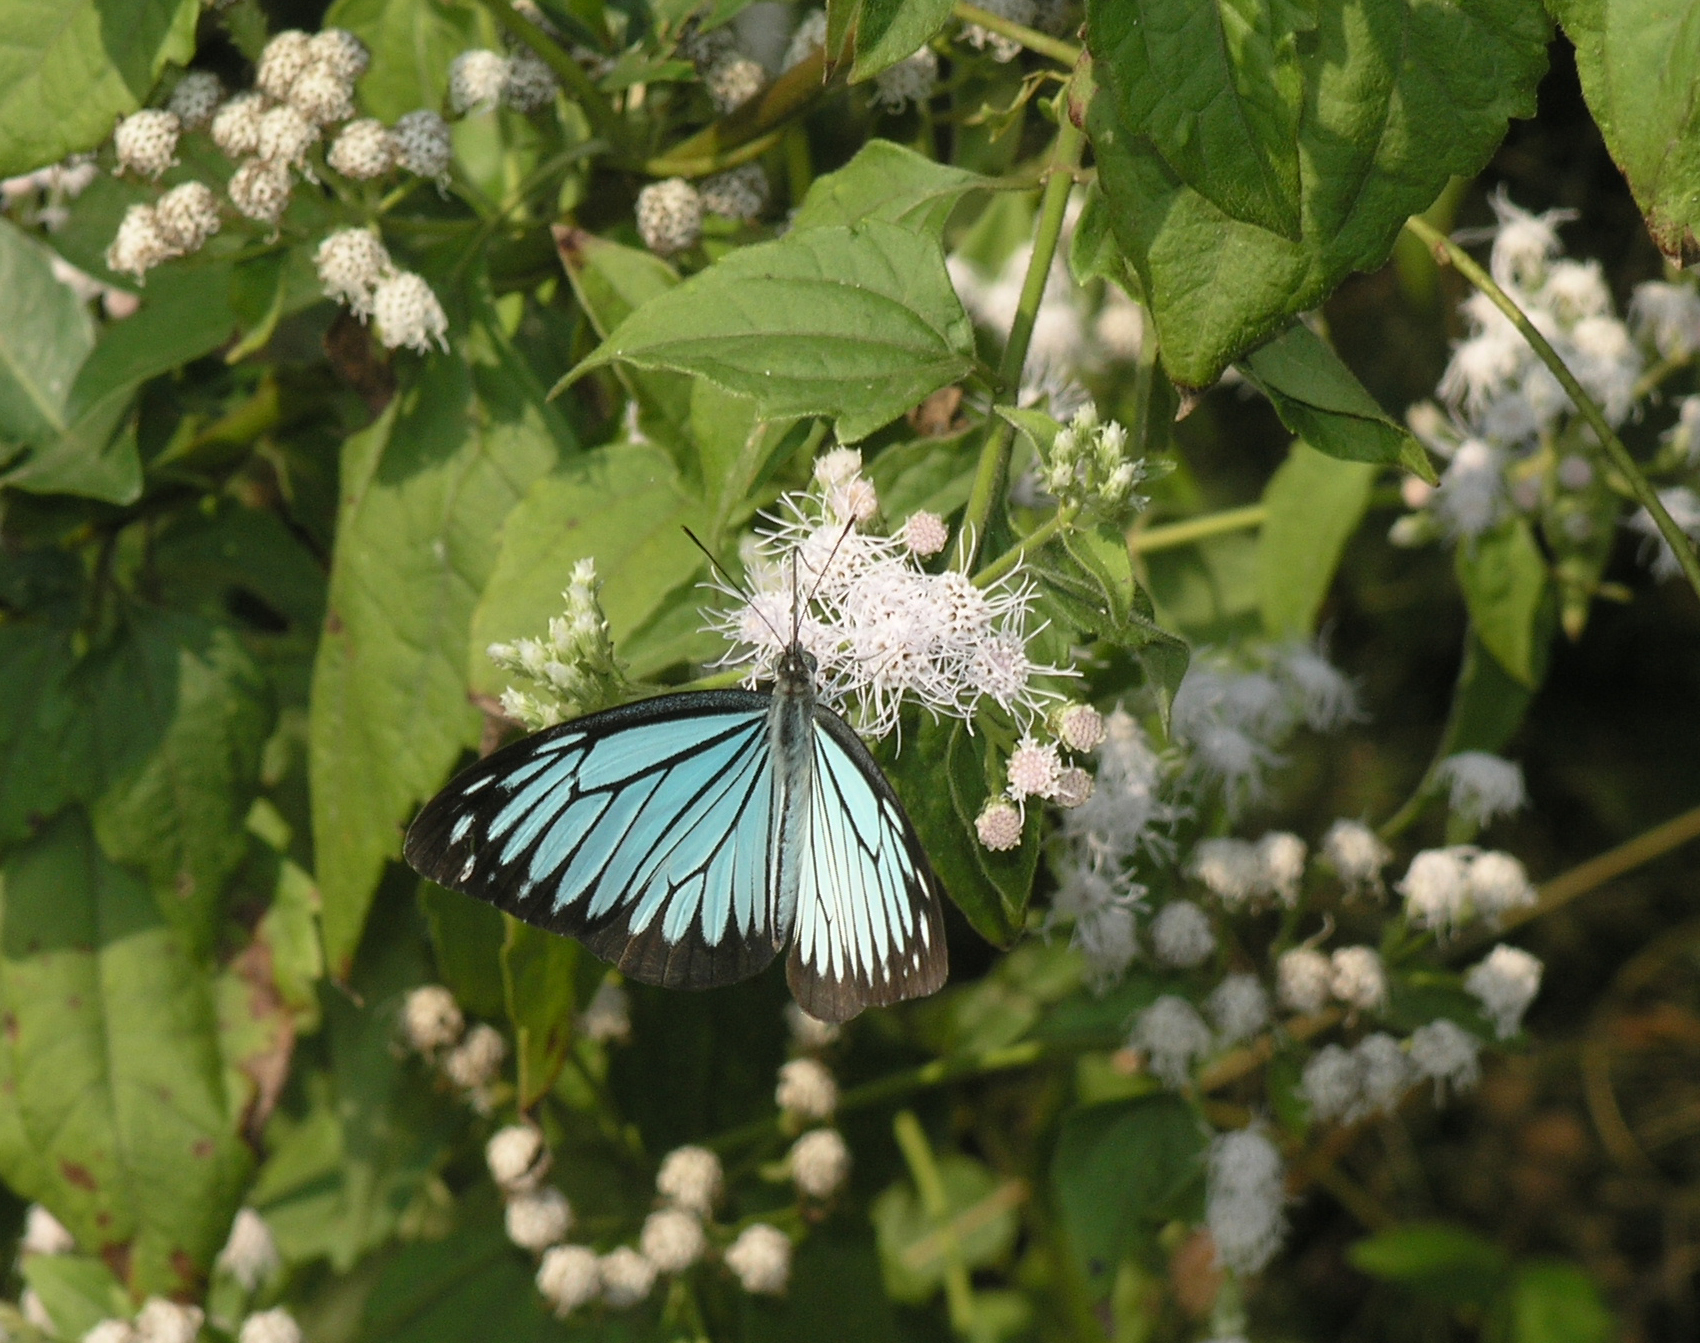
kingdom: Animalia
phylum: Arthropoda
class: Insecta
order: Lepidoptera
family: Pieridae
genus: Pareronia
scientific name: Pareronia hippia
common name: Indian wanderer
